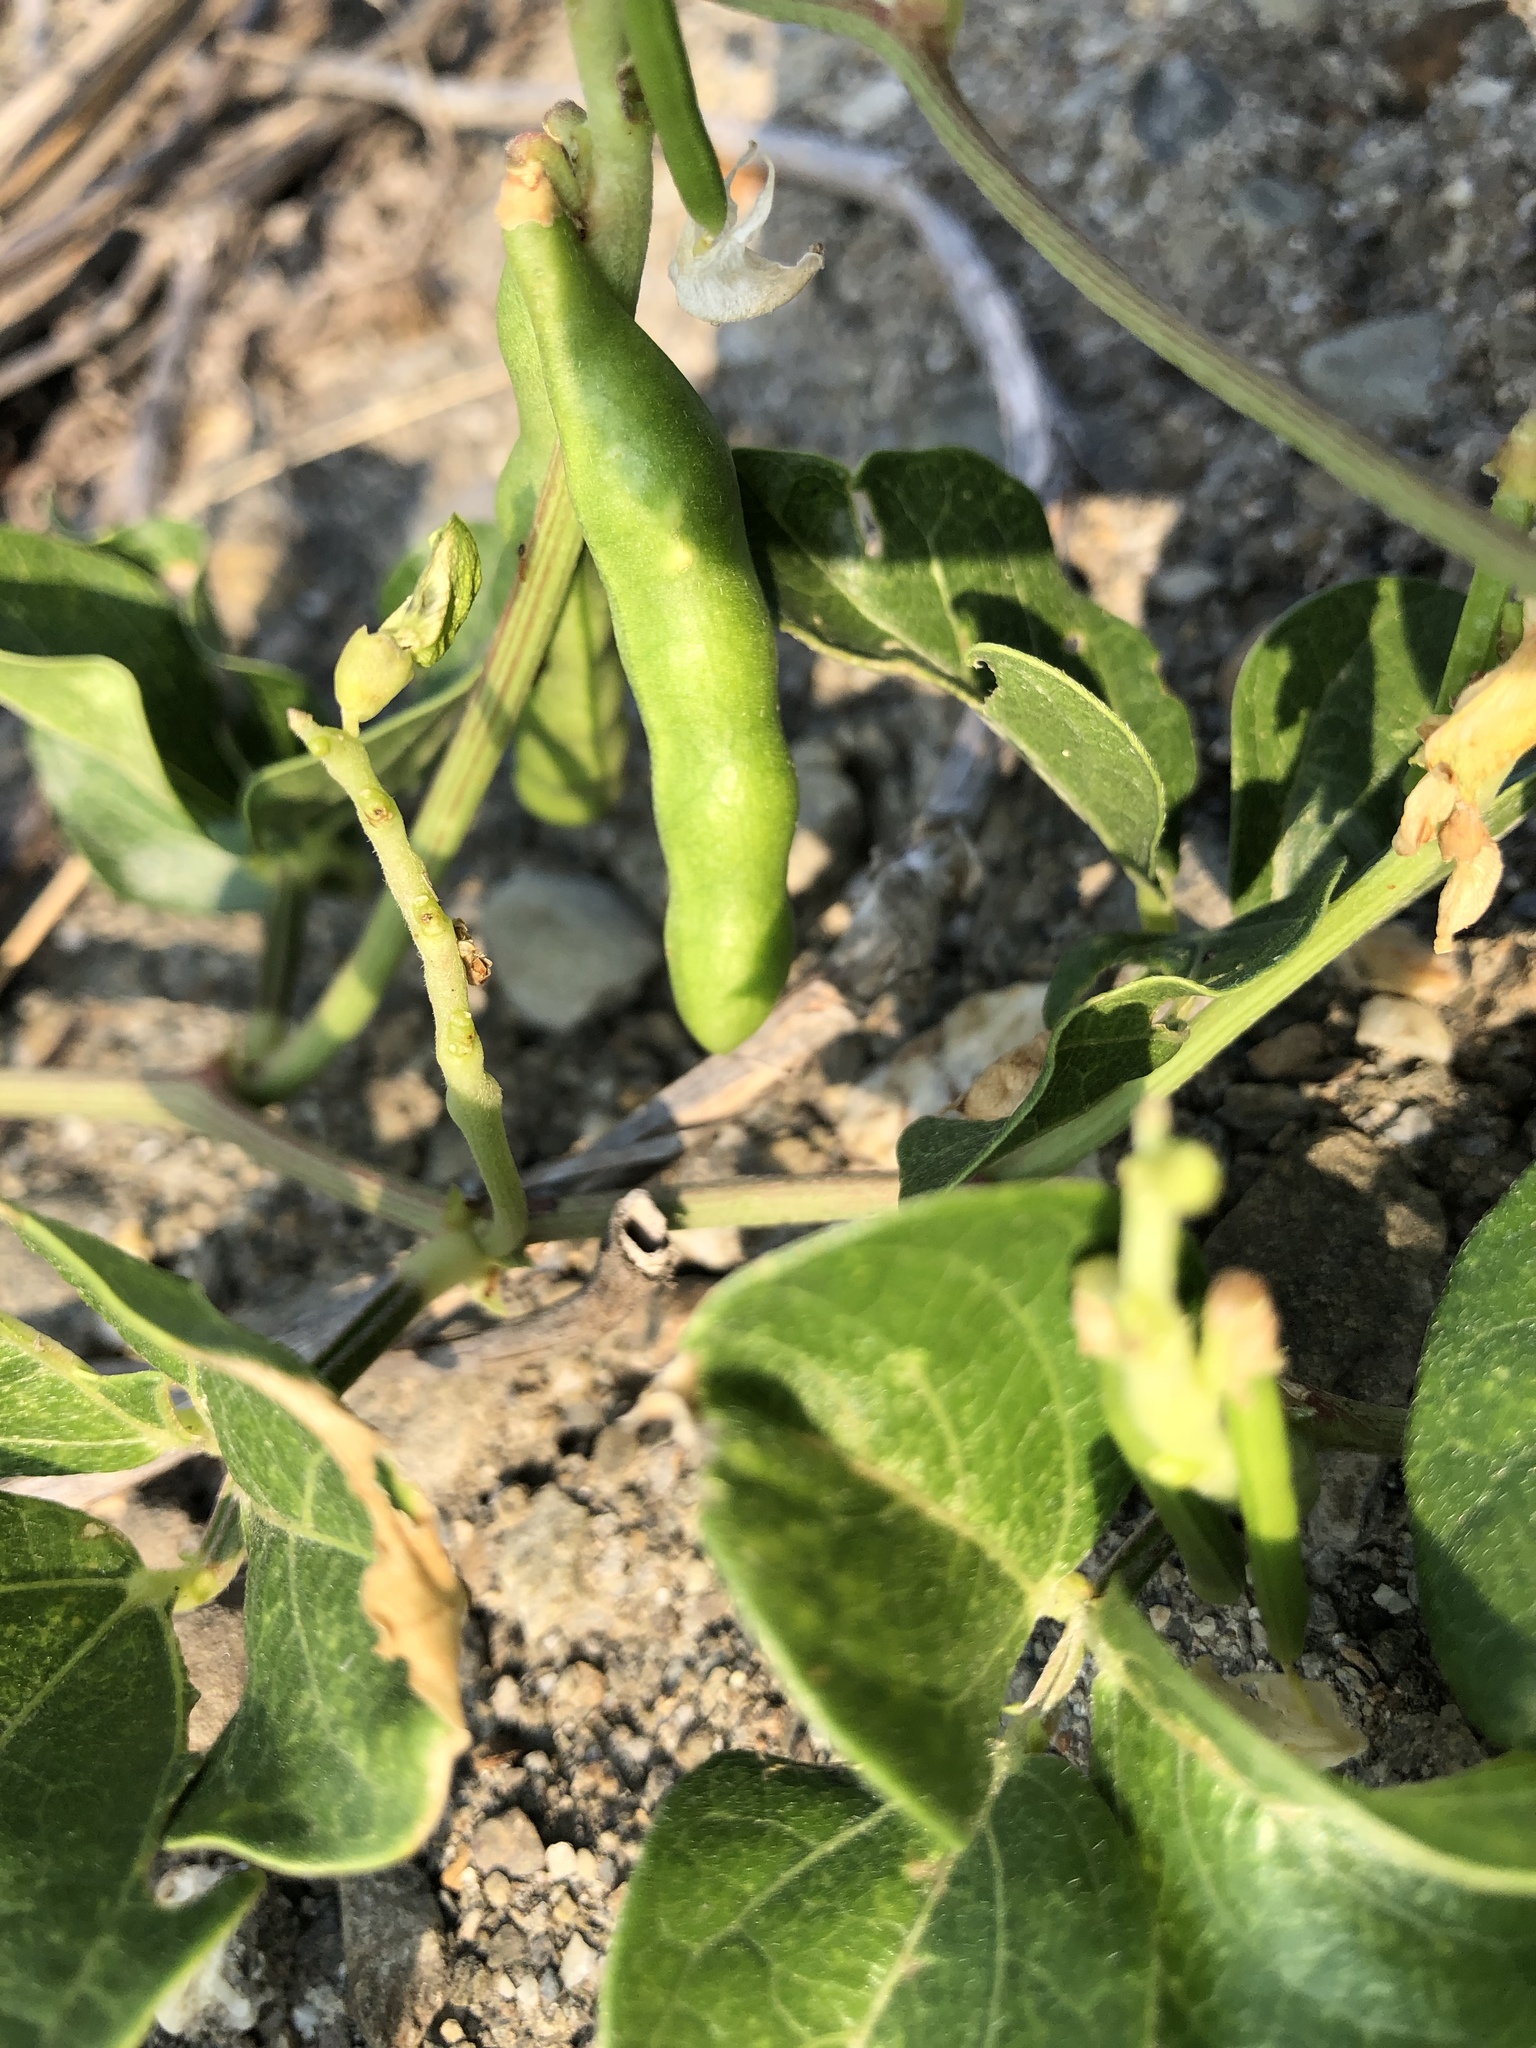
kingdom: Plantae
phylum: Tracheophyta
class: Magnoliopsida
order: Fabales
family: Fabaceae
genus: Vigna
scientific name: Vigna marina
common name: Dune-bean
